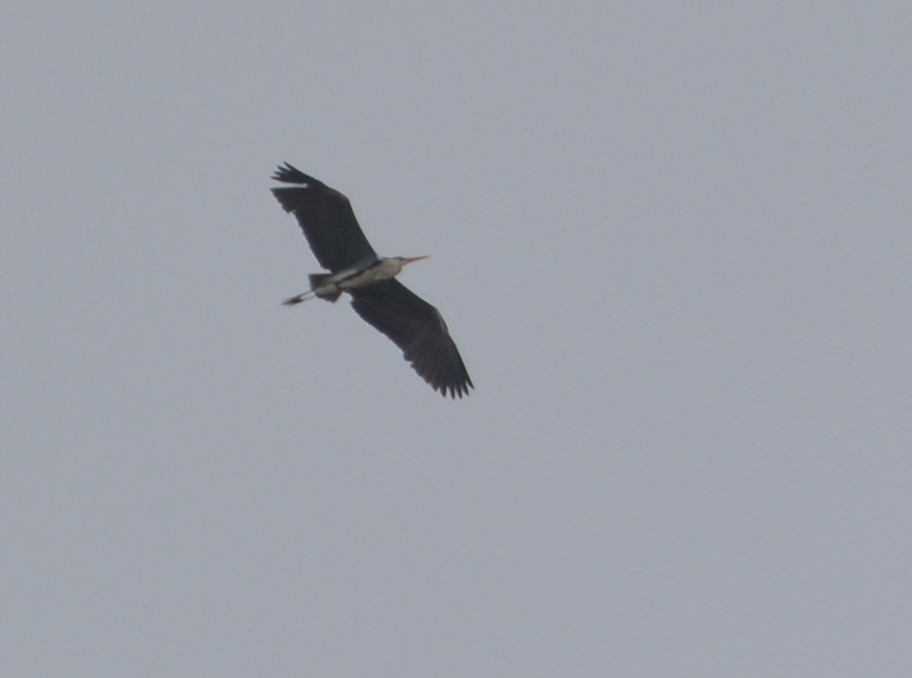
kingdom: Animalia
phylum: Chordata
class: Aves
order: Pelecaniformes
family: Ardeidae
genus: Ardea
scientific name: Ardea cinerea
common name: Grey heron
